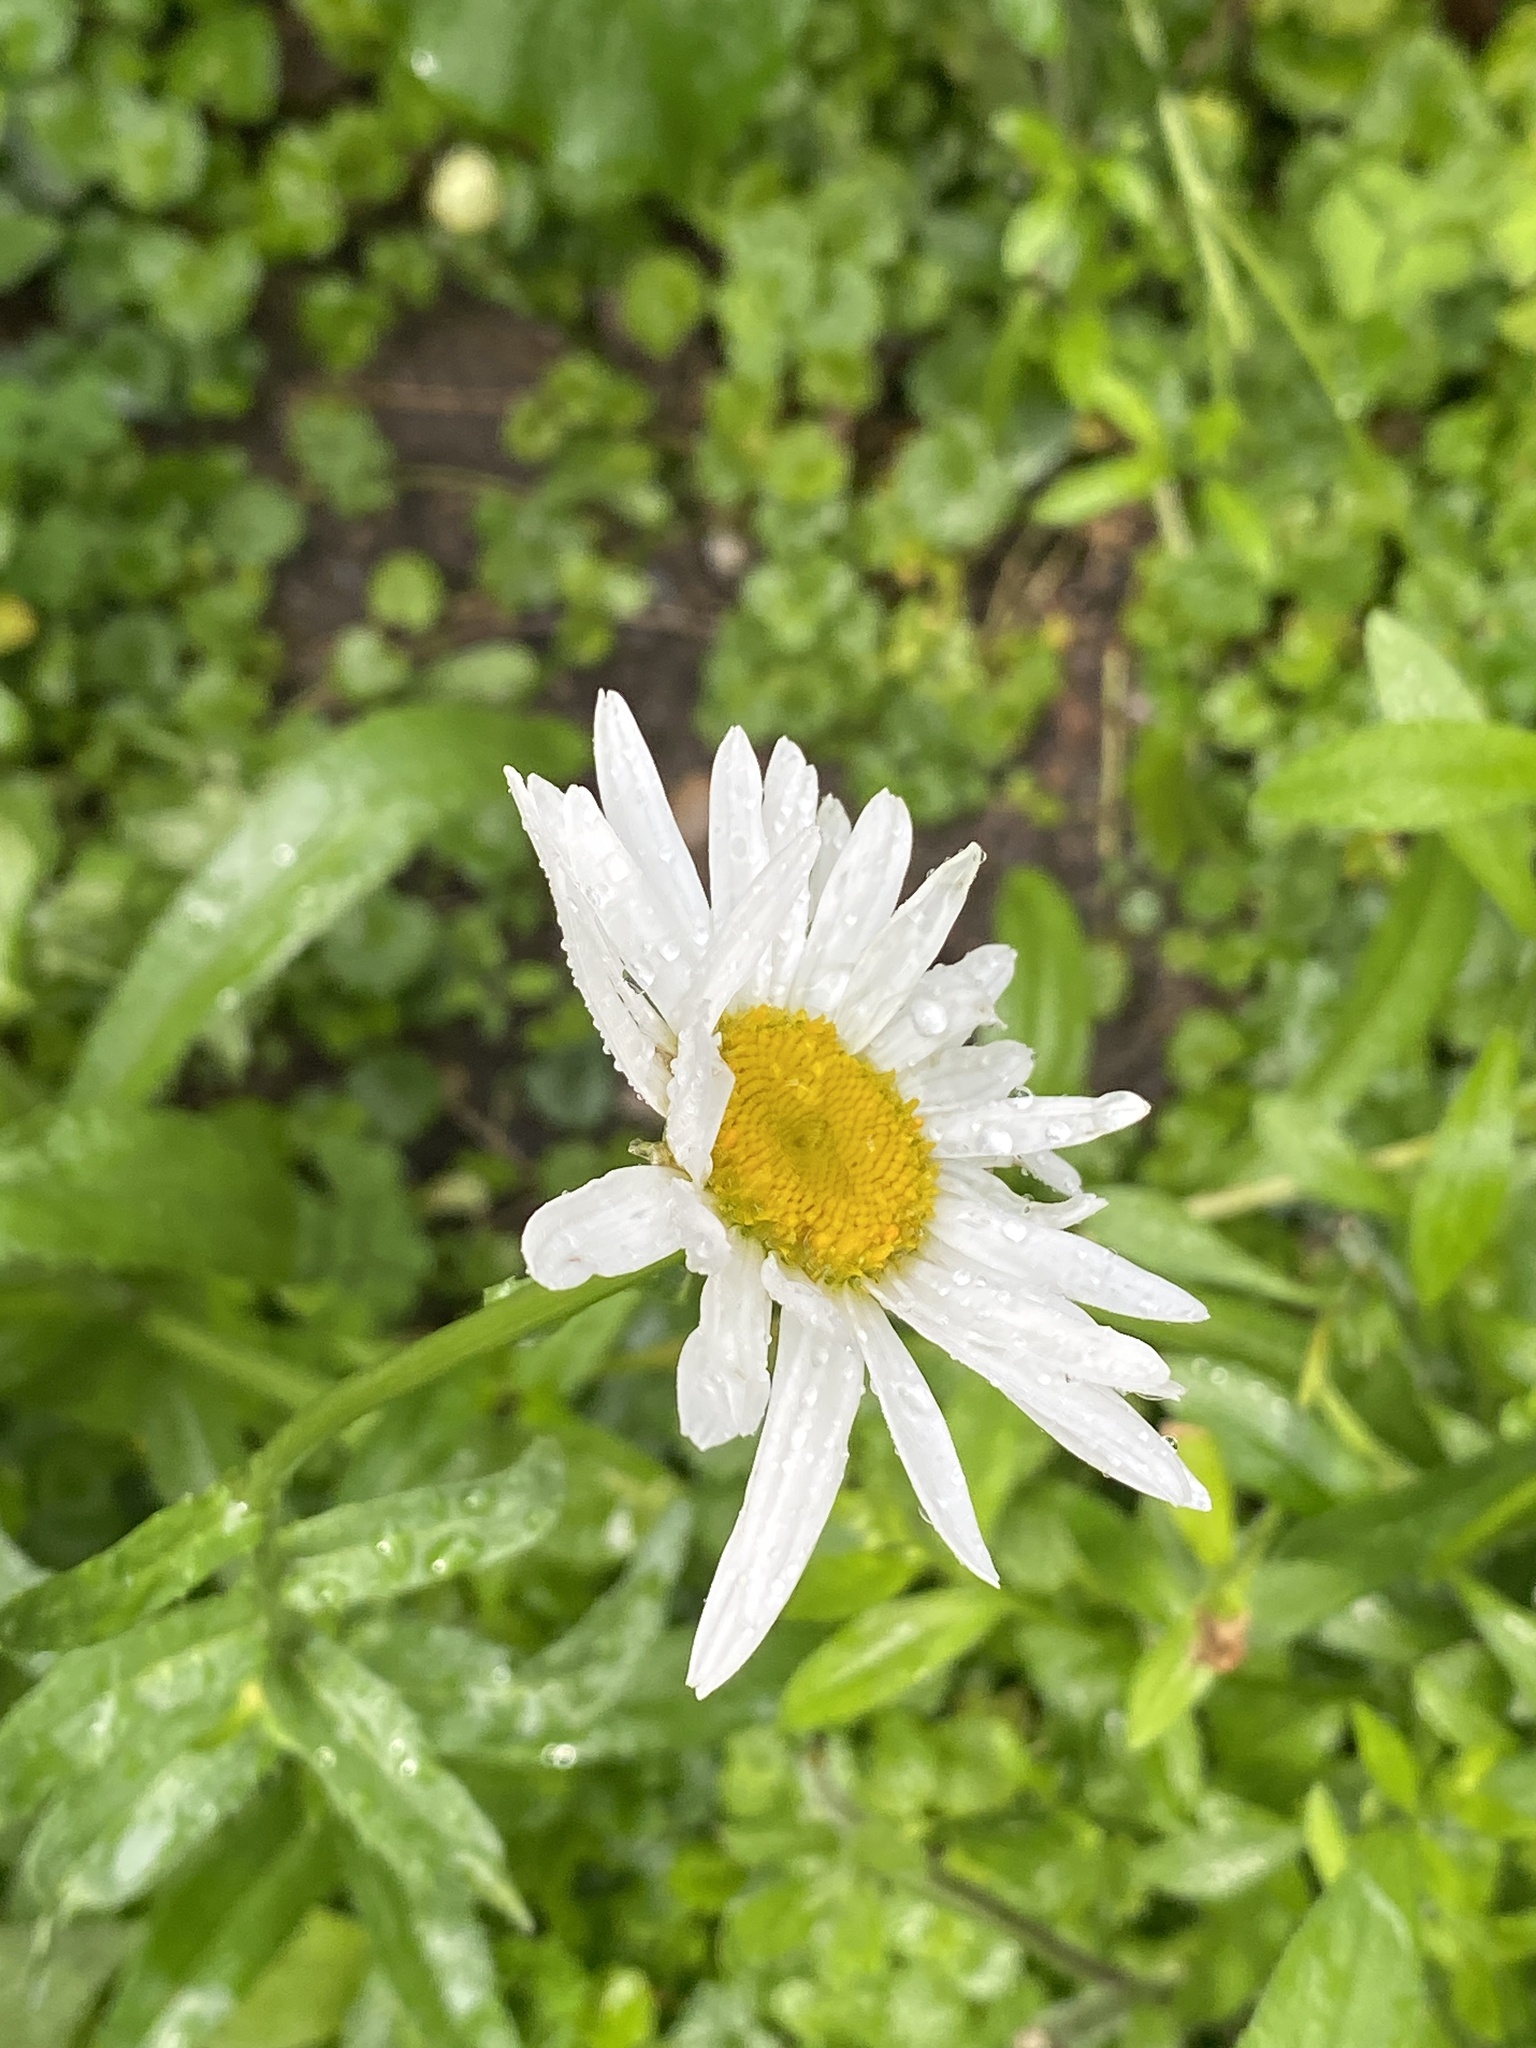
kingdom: Plantae
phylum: Tracheophyta
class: Magnoliopsida
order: Asterales
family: Asteraceae
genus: Leucanthemum
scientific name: Leucanthemum vulgare
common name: Oxeye daisy
